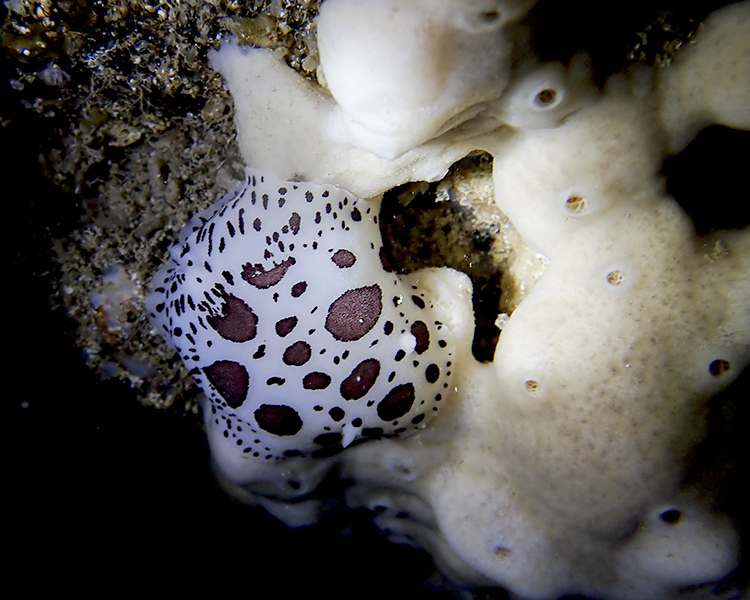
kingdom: Animalia
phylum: Mollusca
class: Gastropoda
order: Nudibranchia
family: Discodorididae
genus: Peltodoris
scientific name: Peltodoris atromaculata
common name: Swiss cow nudibranch
